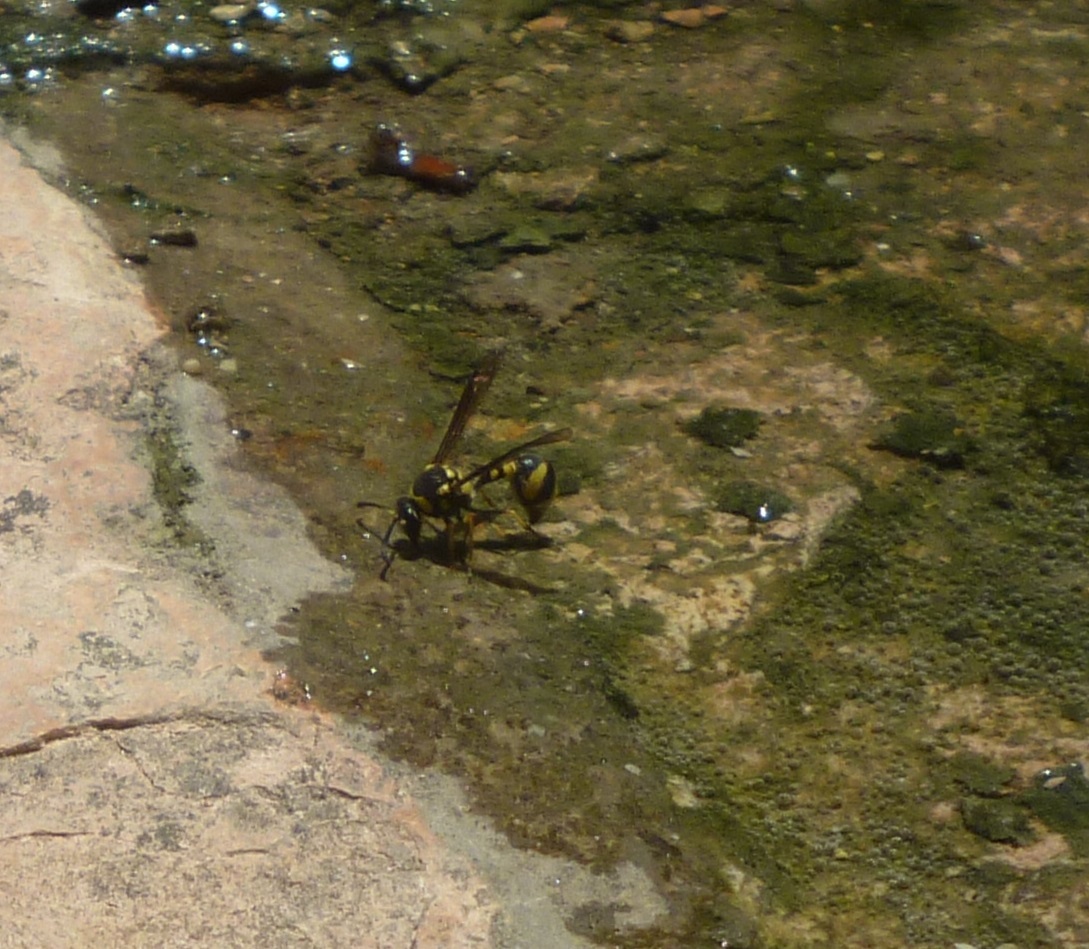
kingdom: Animalia
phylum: Arthropoda
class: Insecta
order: Hymenoptera
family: Vespidae
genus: Eumenes
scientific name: Eumenes mediterraneus
